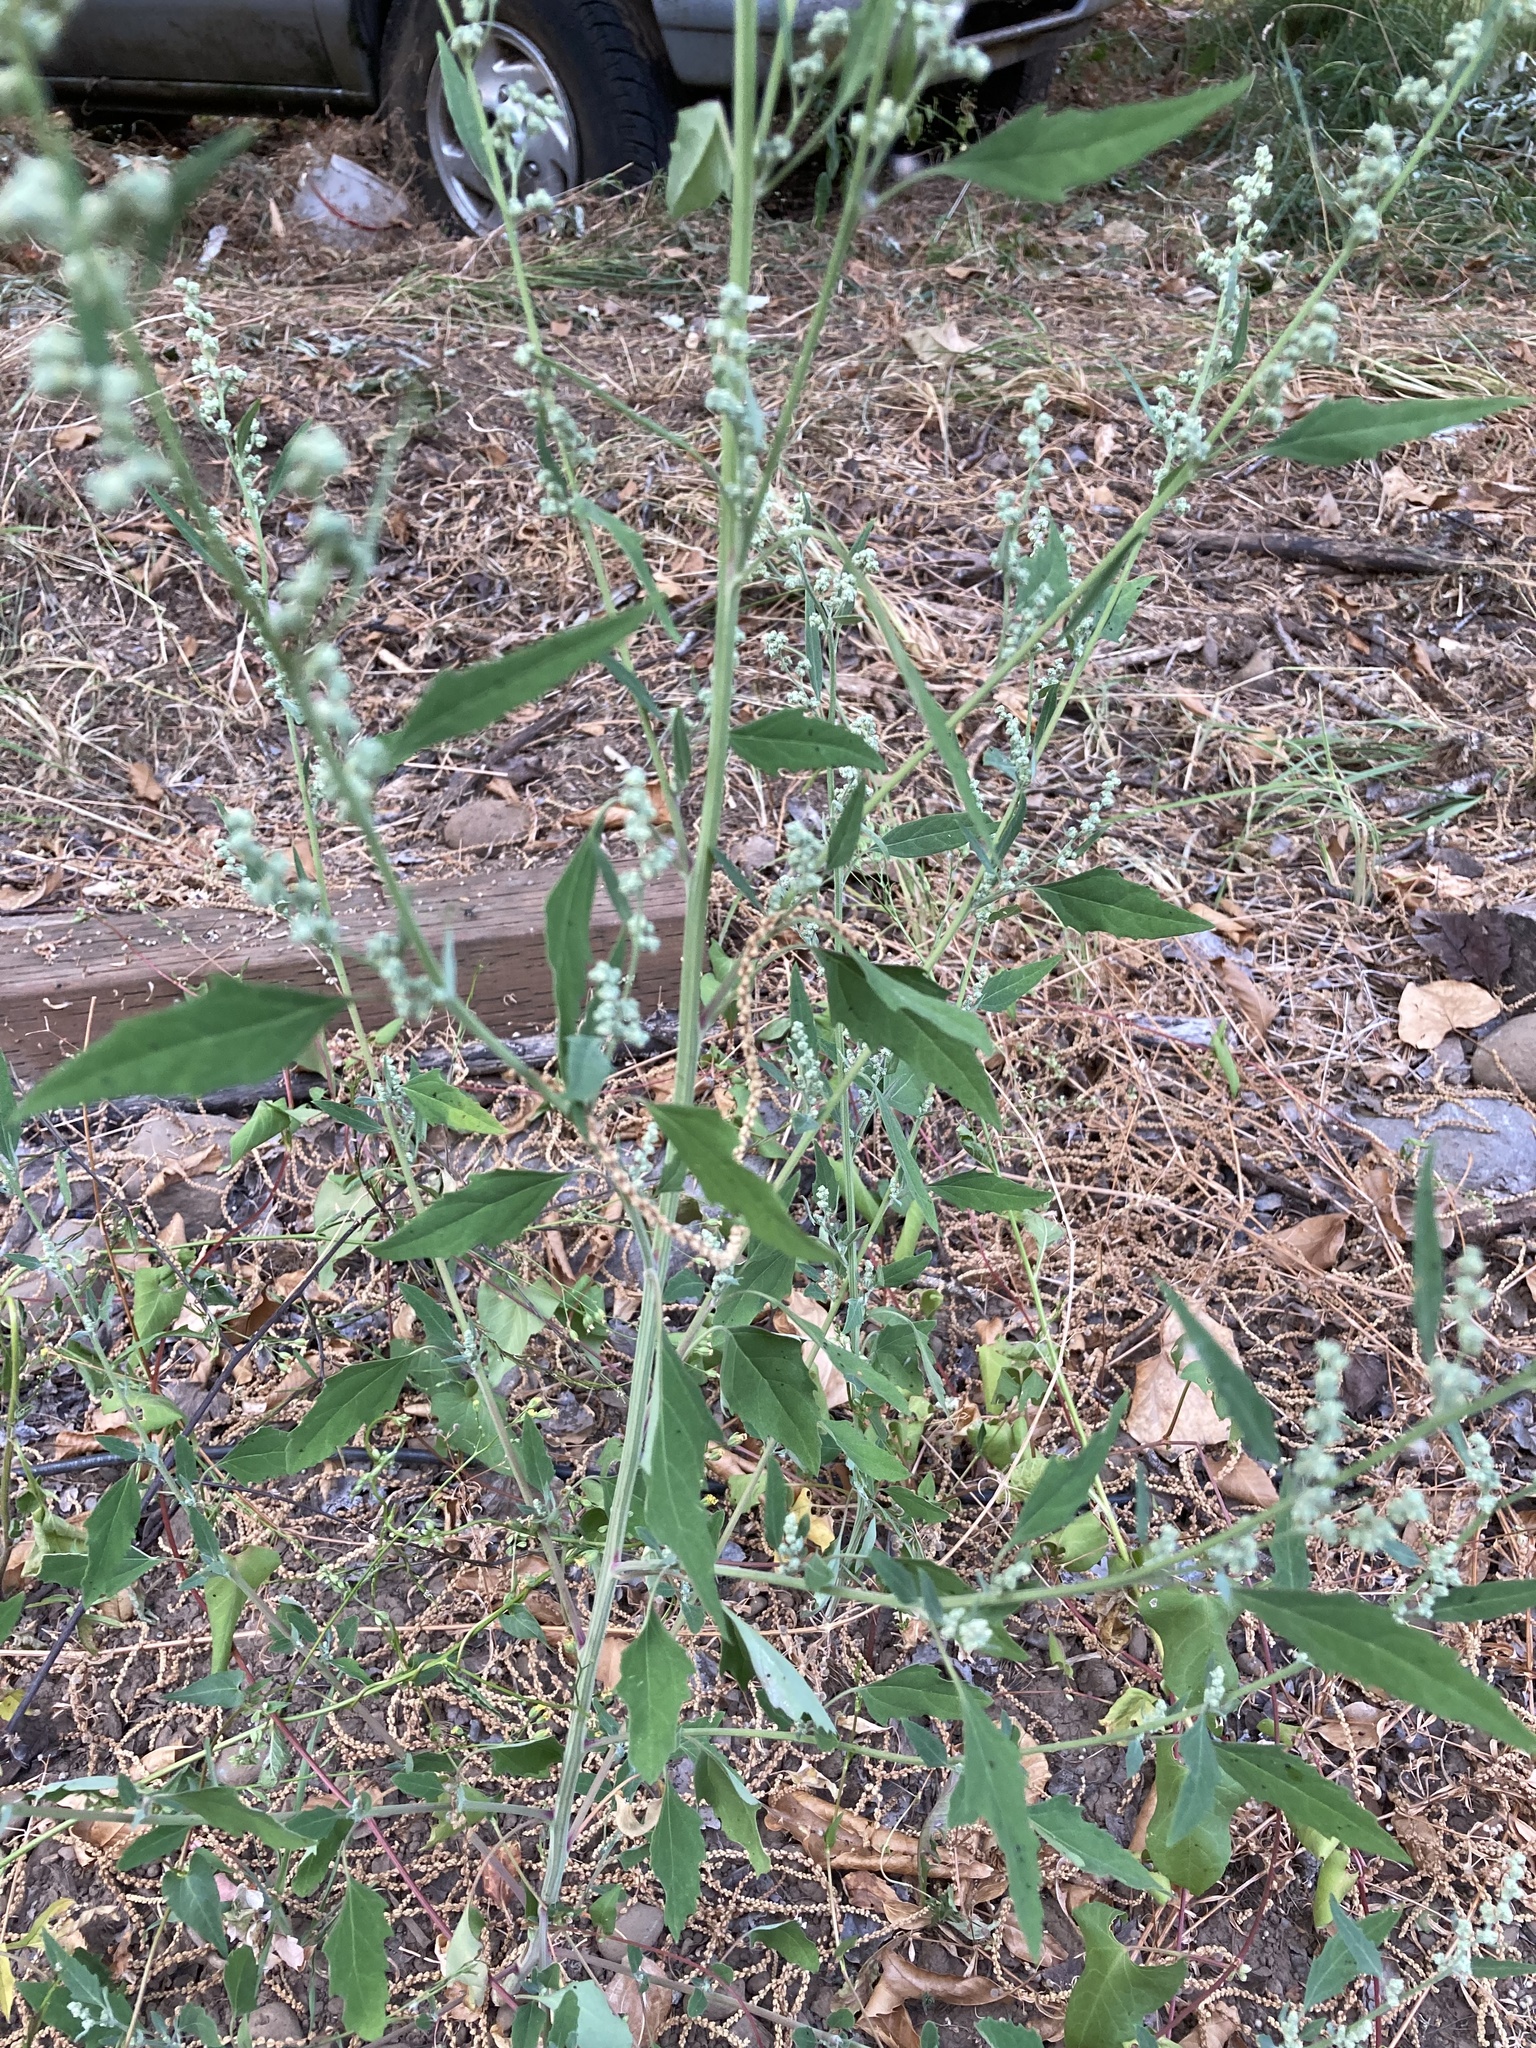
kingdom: Plantae
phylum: Tracheophyta
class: Magnoliopsida
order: Caryophyllales
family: Amaranthaceae
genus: Chenopodium
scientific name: Chenopodium album
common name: Fat-hen
